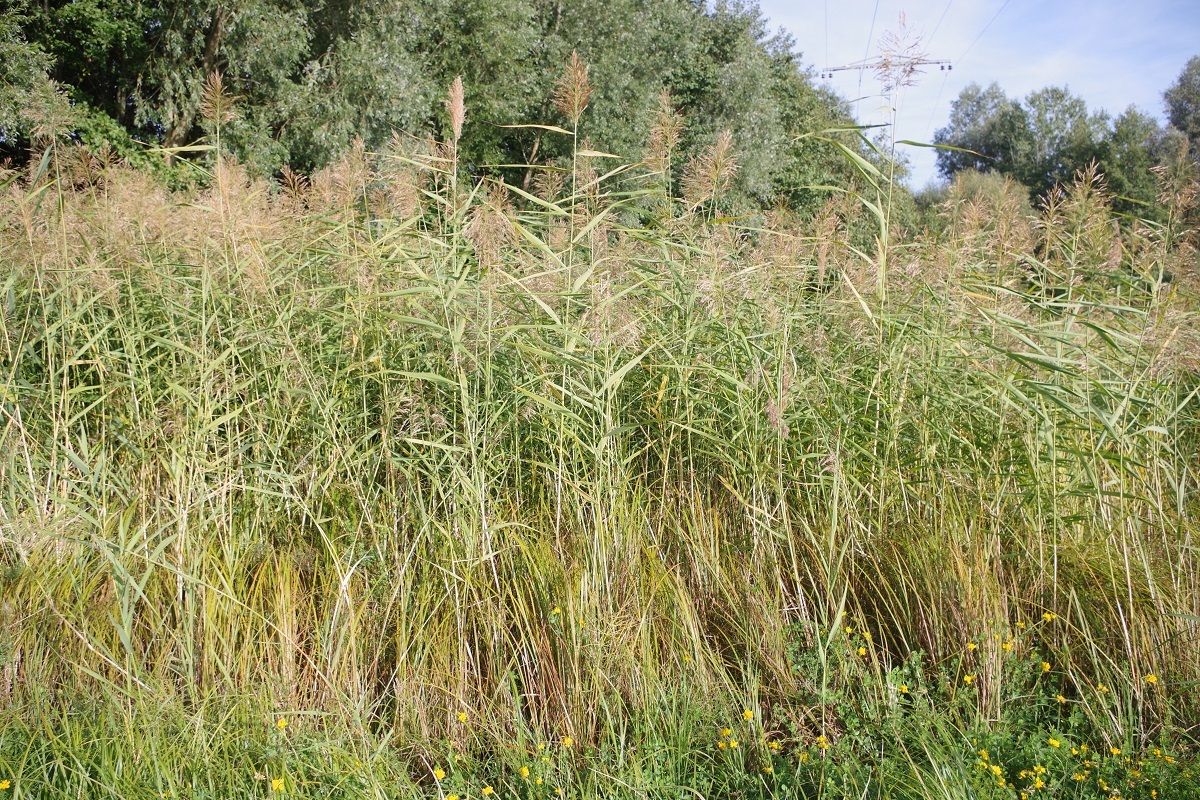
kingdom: Plantae
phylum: Tracheophyta
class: Liliopsida
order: Poales
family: Poaceae
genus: Phragmites
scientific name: Phragmites australis
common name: Common reed
